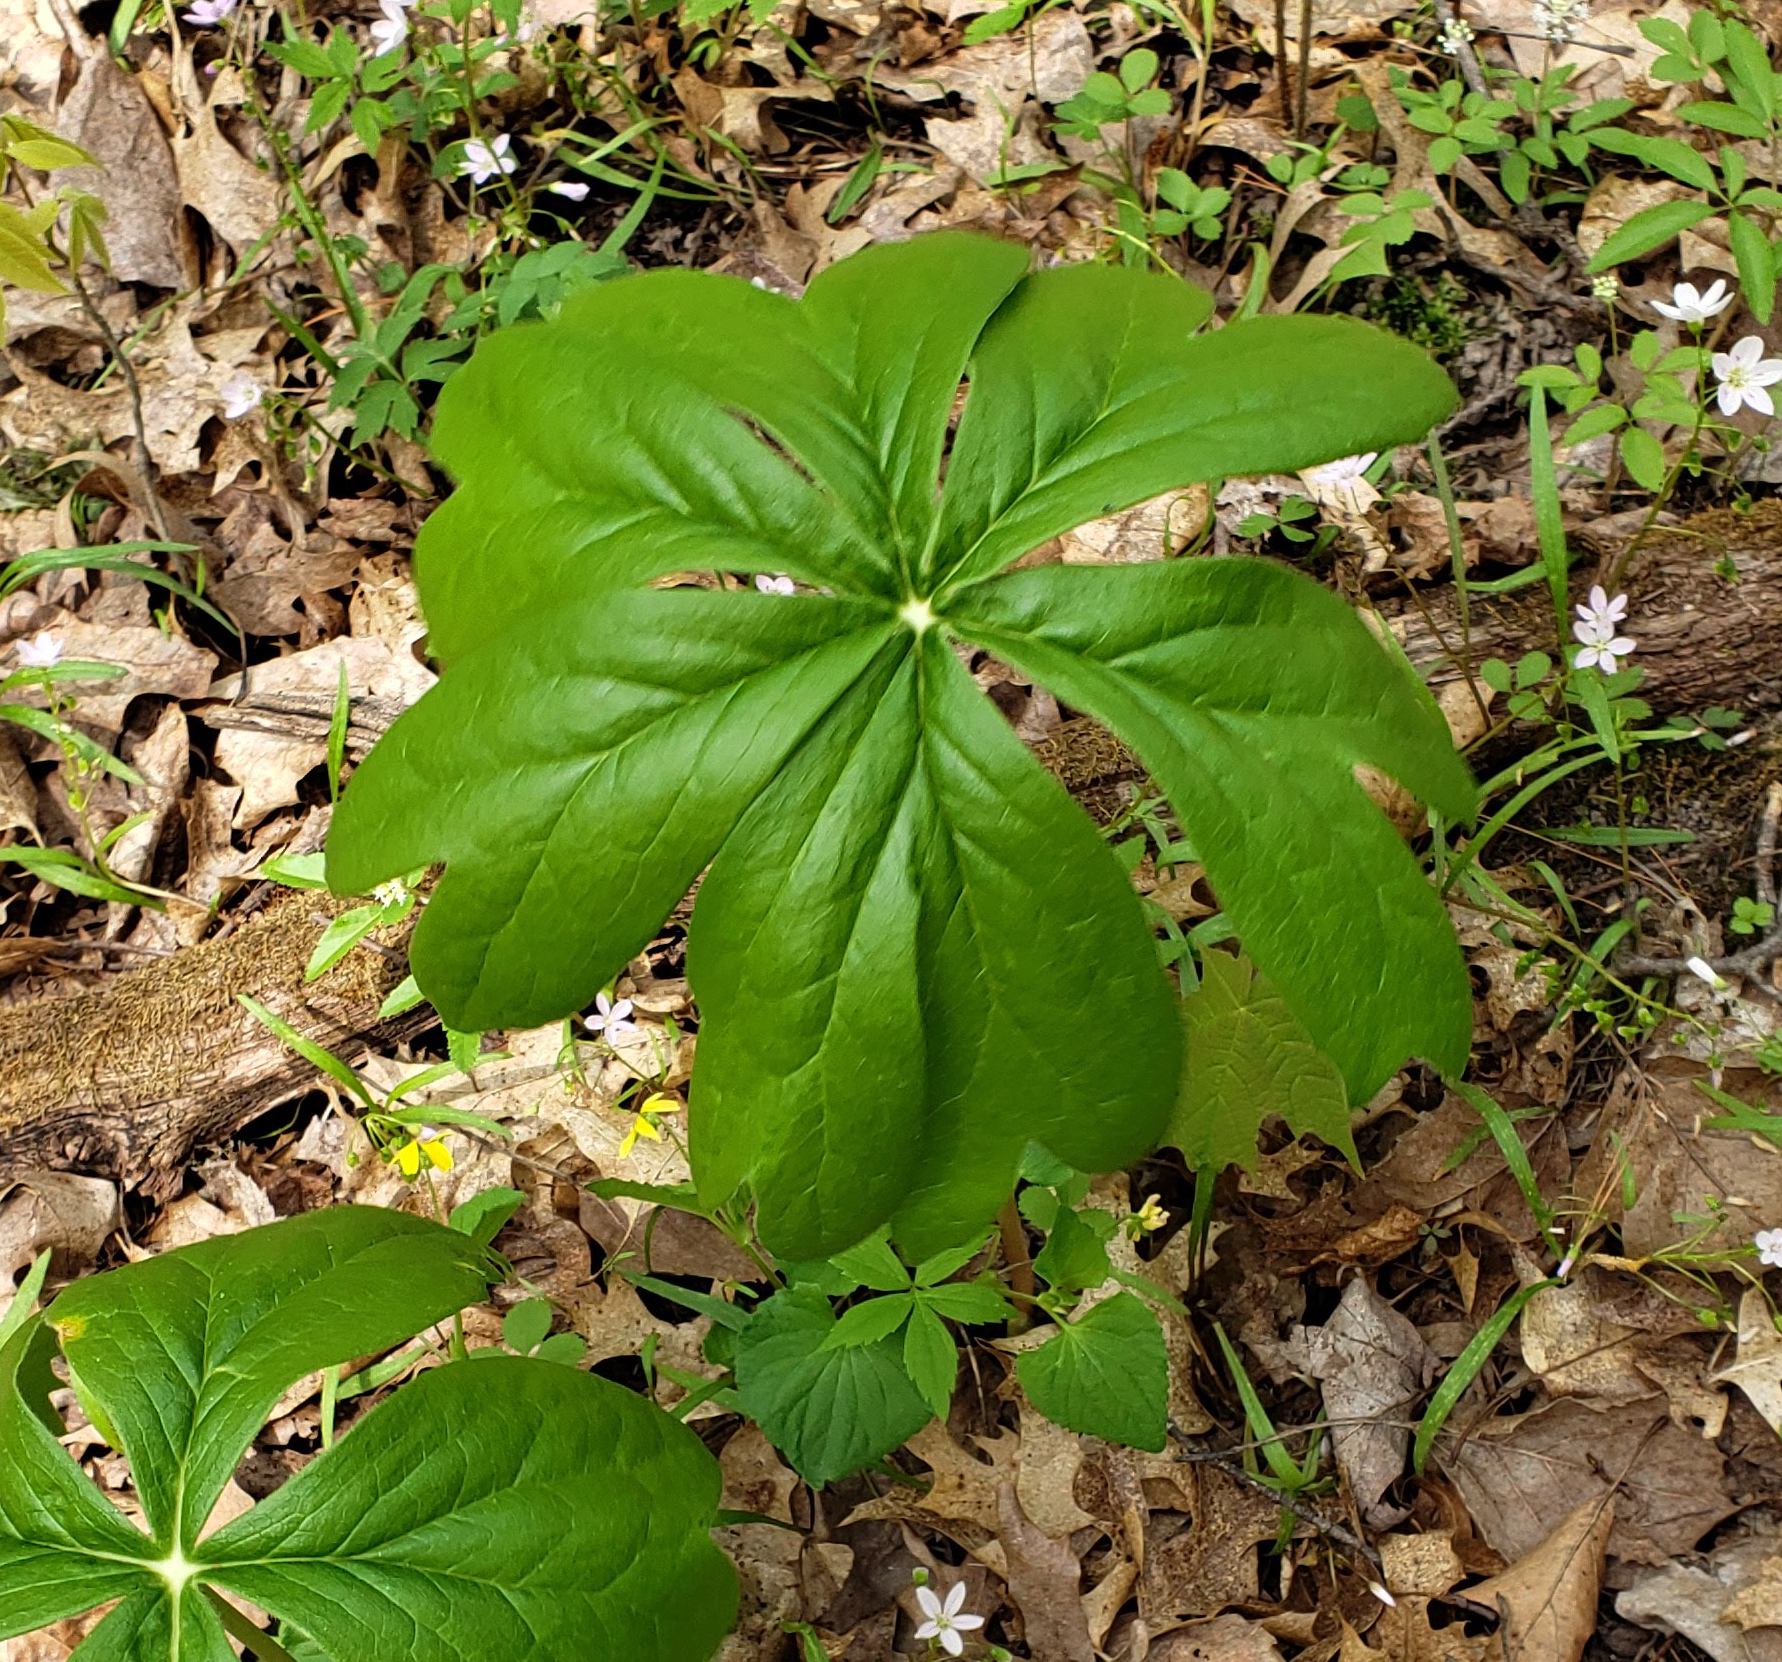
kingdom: Plantae
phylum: Tracheophyta
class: Magnoliopsida
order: Ranunculales
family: Berberidaceae
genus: Podophyllum
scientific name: Podophyllum peltatum
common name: Wild mandrake
